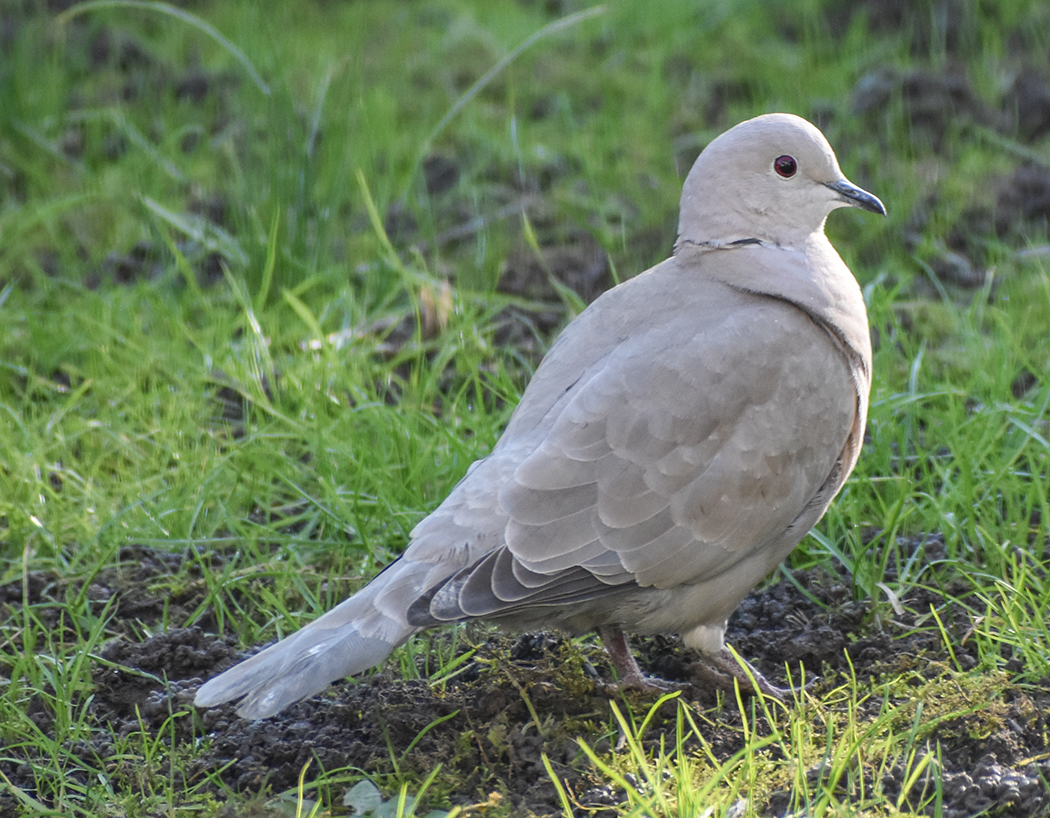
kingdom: Animalia
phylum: Chordata
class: Aves
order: Columbiformes
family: Columbidae
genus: Streptopelia
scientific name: Streptopelia decaocto
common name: Eurasian collared dove
